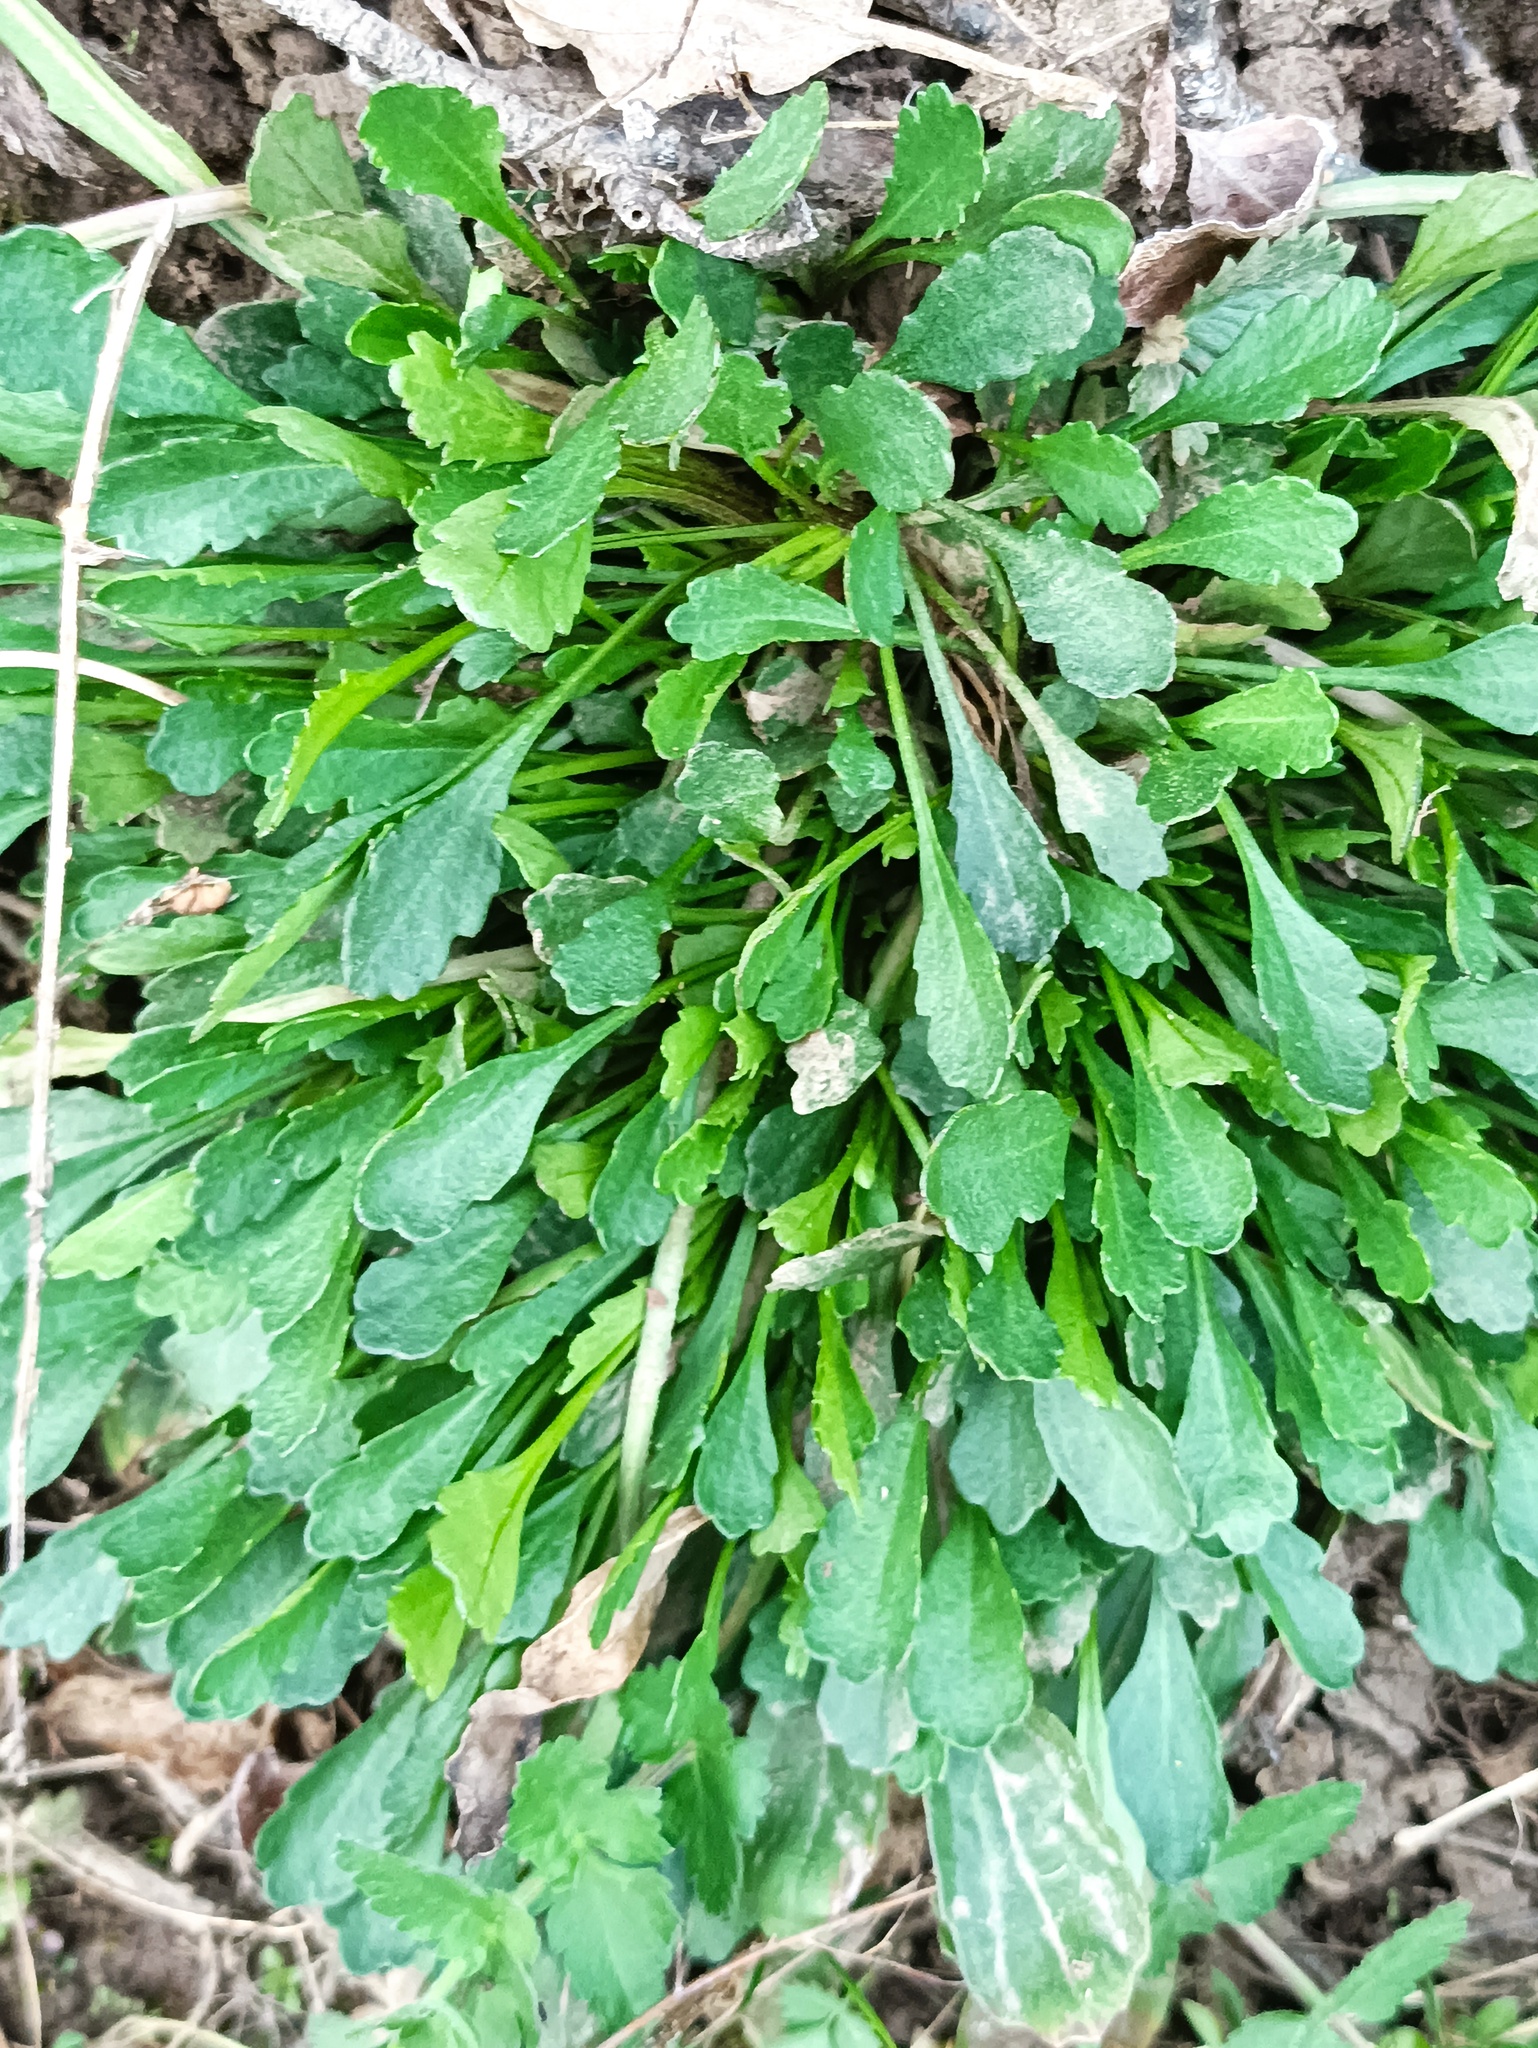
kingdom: Plantae
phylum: Tracheophyta
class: Magnoliopsida
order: Asterales
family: Asteraceae
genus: Leucanthemum
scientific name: Leucanthemum vulgare
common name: Oxeye daisy
